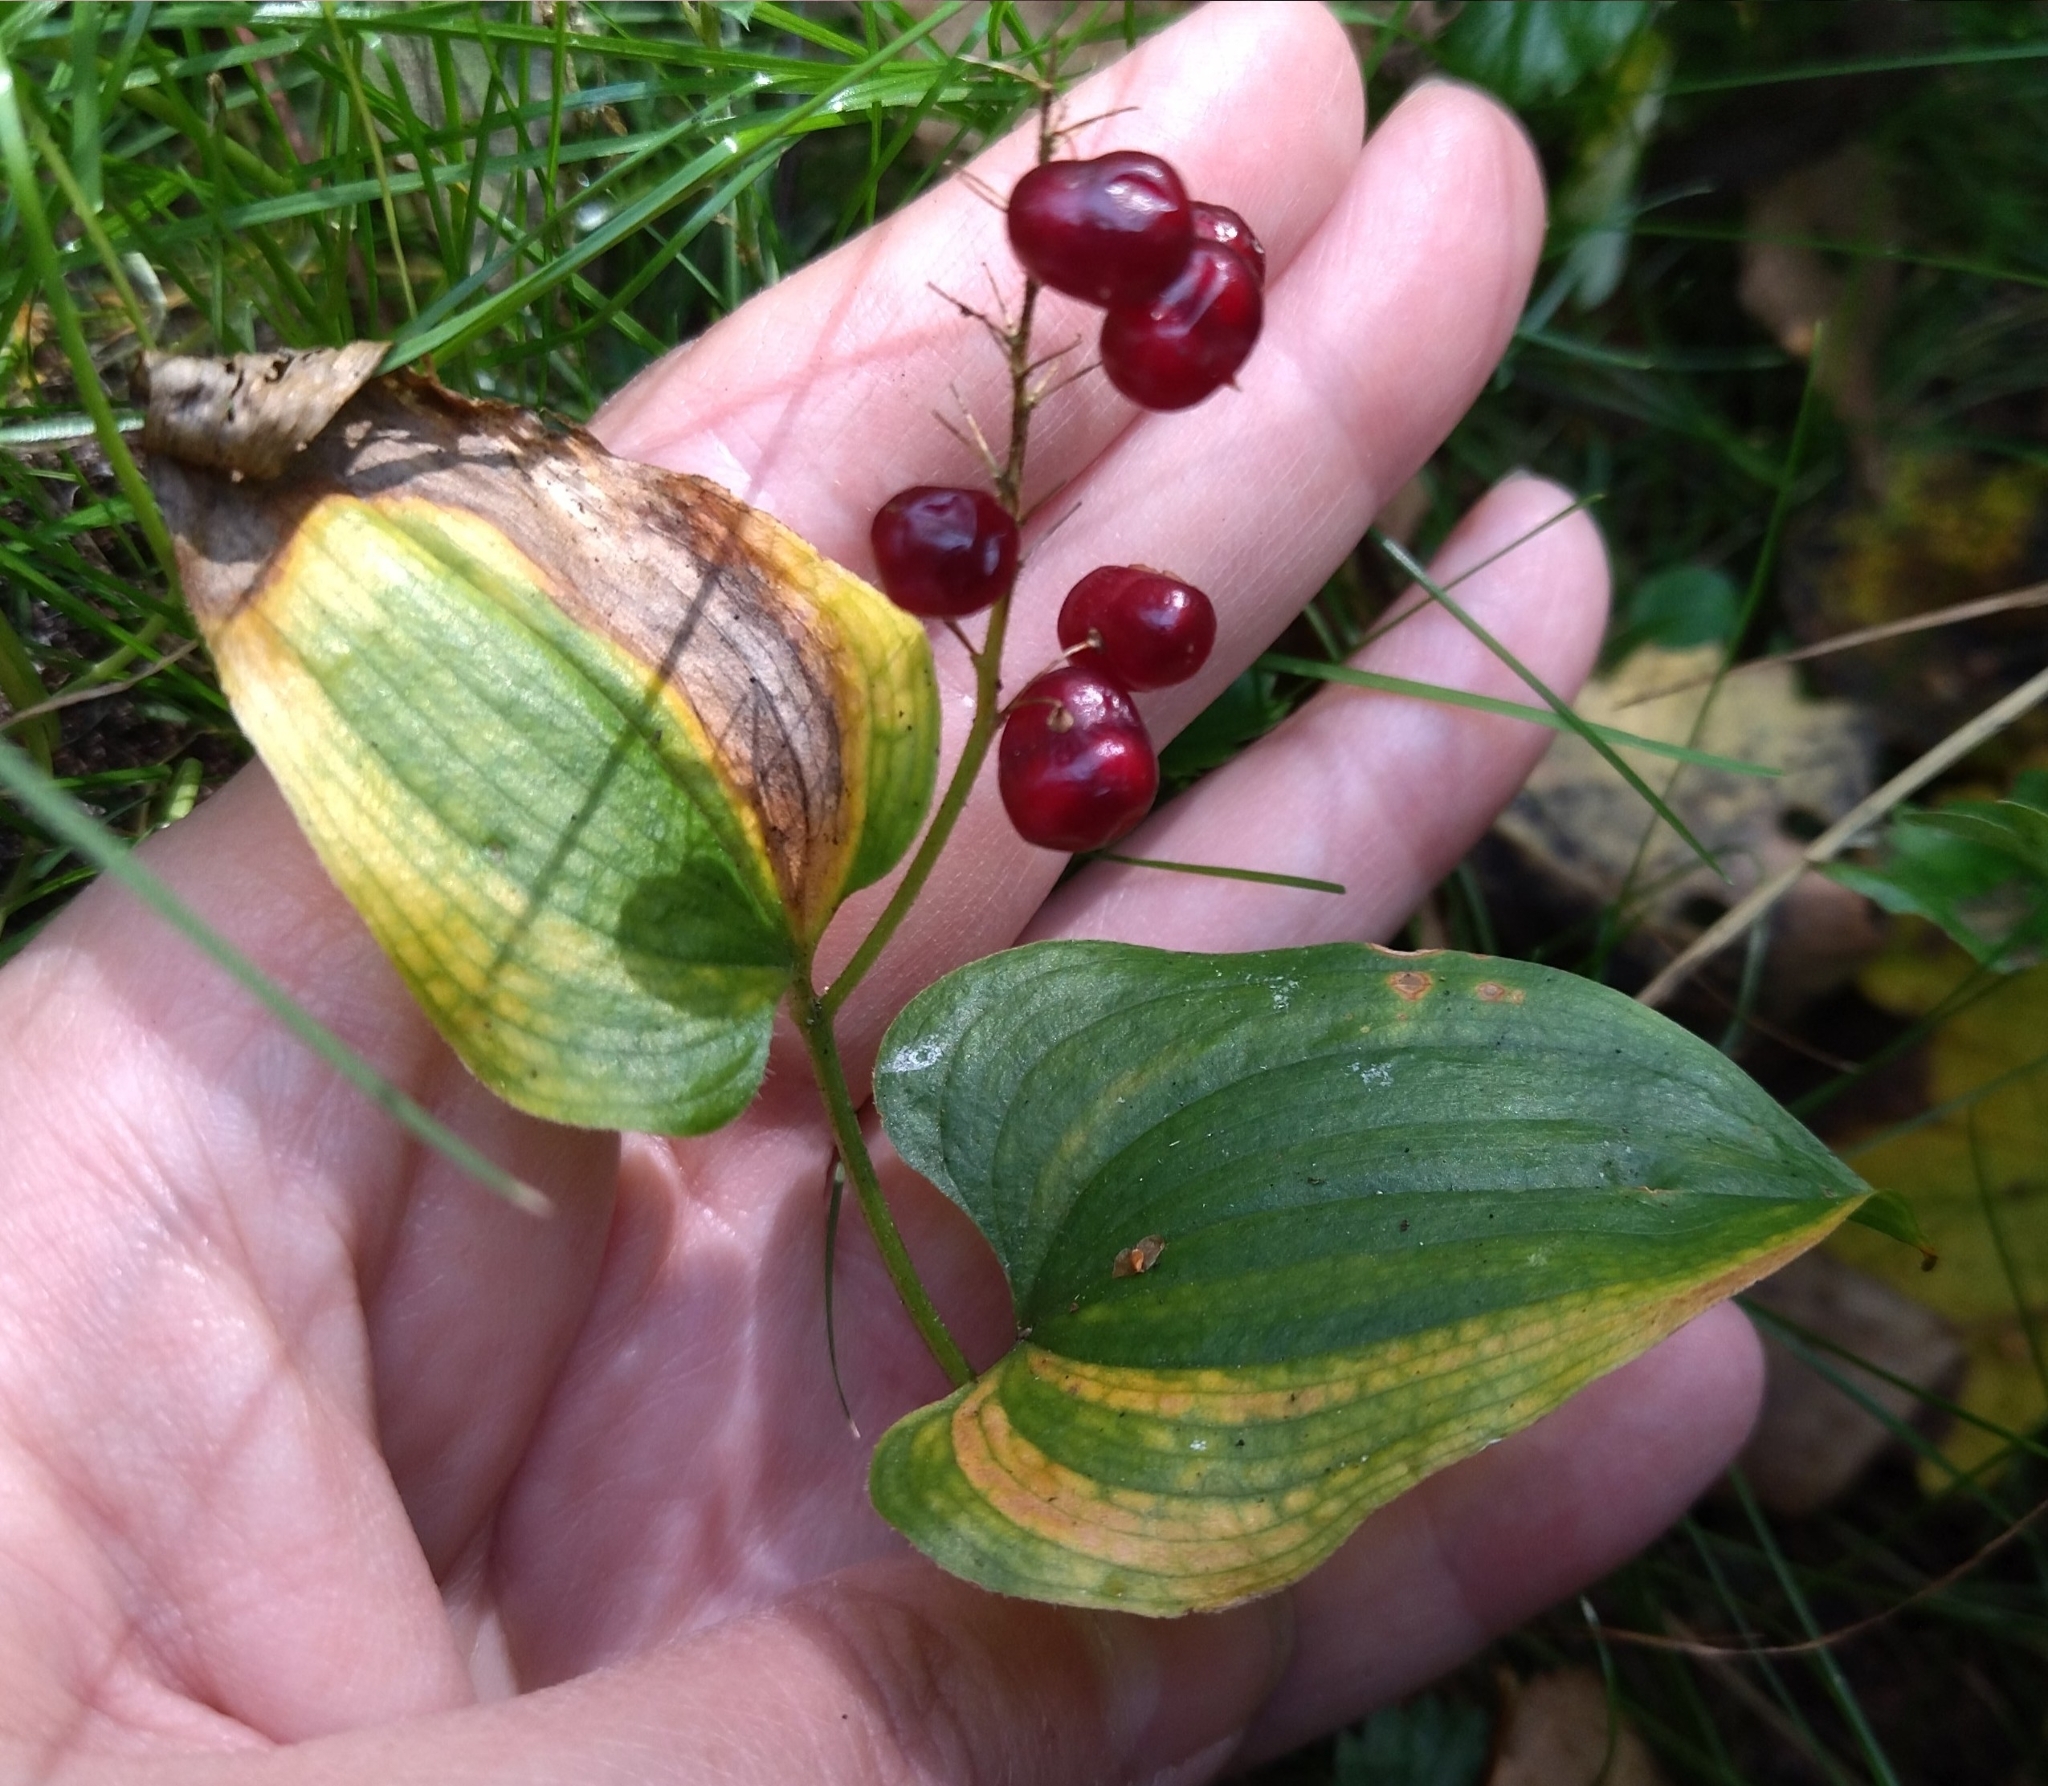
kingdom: Plantae
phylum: Tracheophyta
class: Liliopsida
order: Asparagales
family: Asparagaceae
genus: Maianthemum
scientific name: Maianthemum bifolium
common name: May lily
